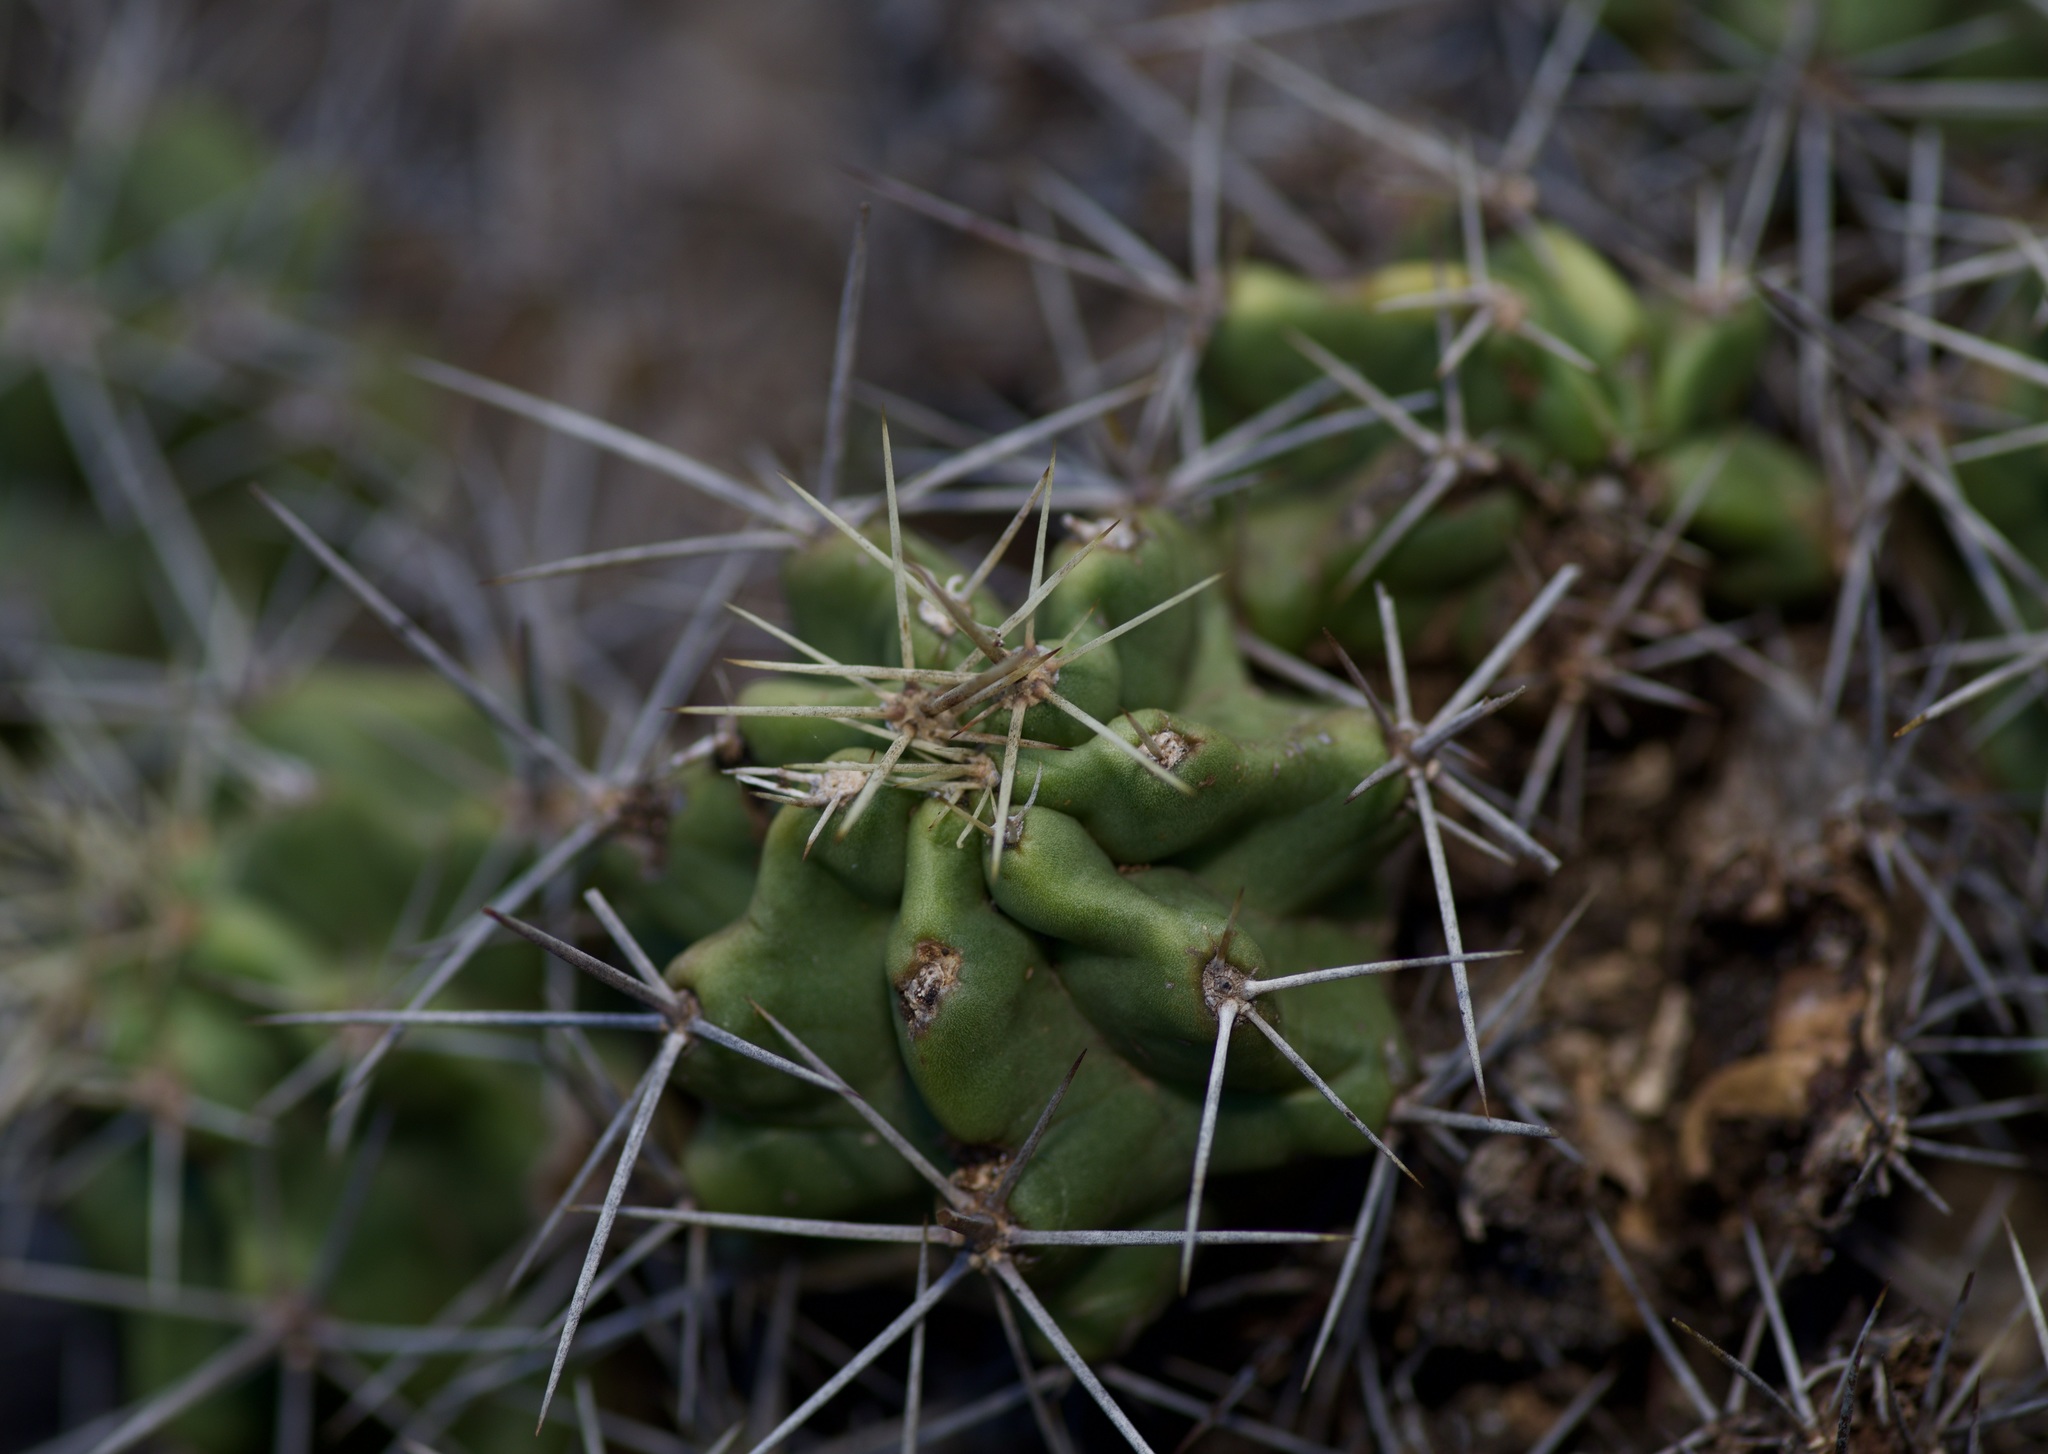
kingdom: Plantae
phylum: Tracheophyta
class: Magnoliopsida
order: Caryophyllales
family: Cactaceae
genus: Echinocereus
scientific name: Echinocereus coccineus
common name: Scarlet hedgehog cactus
